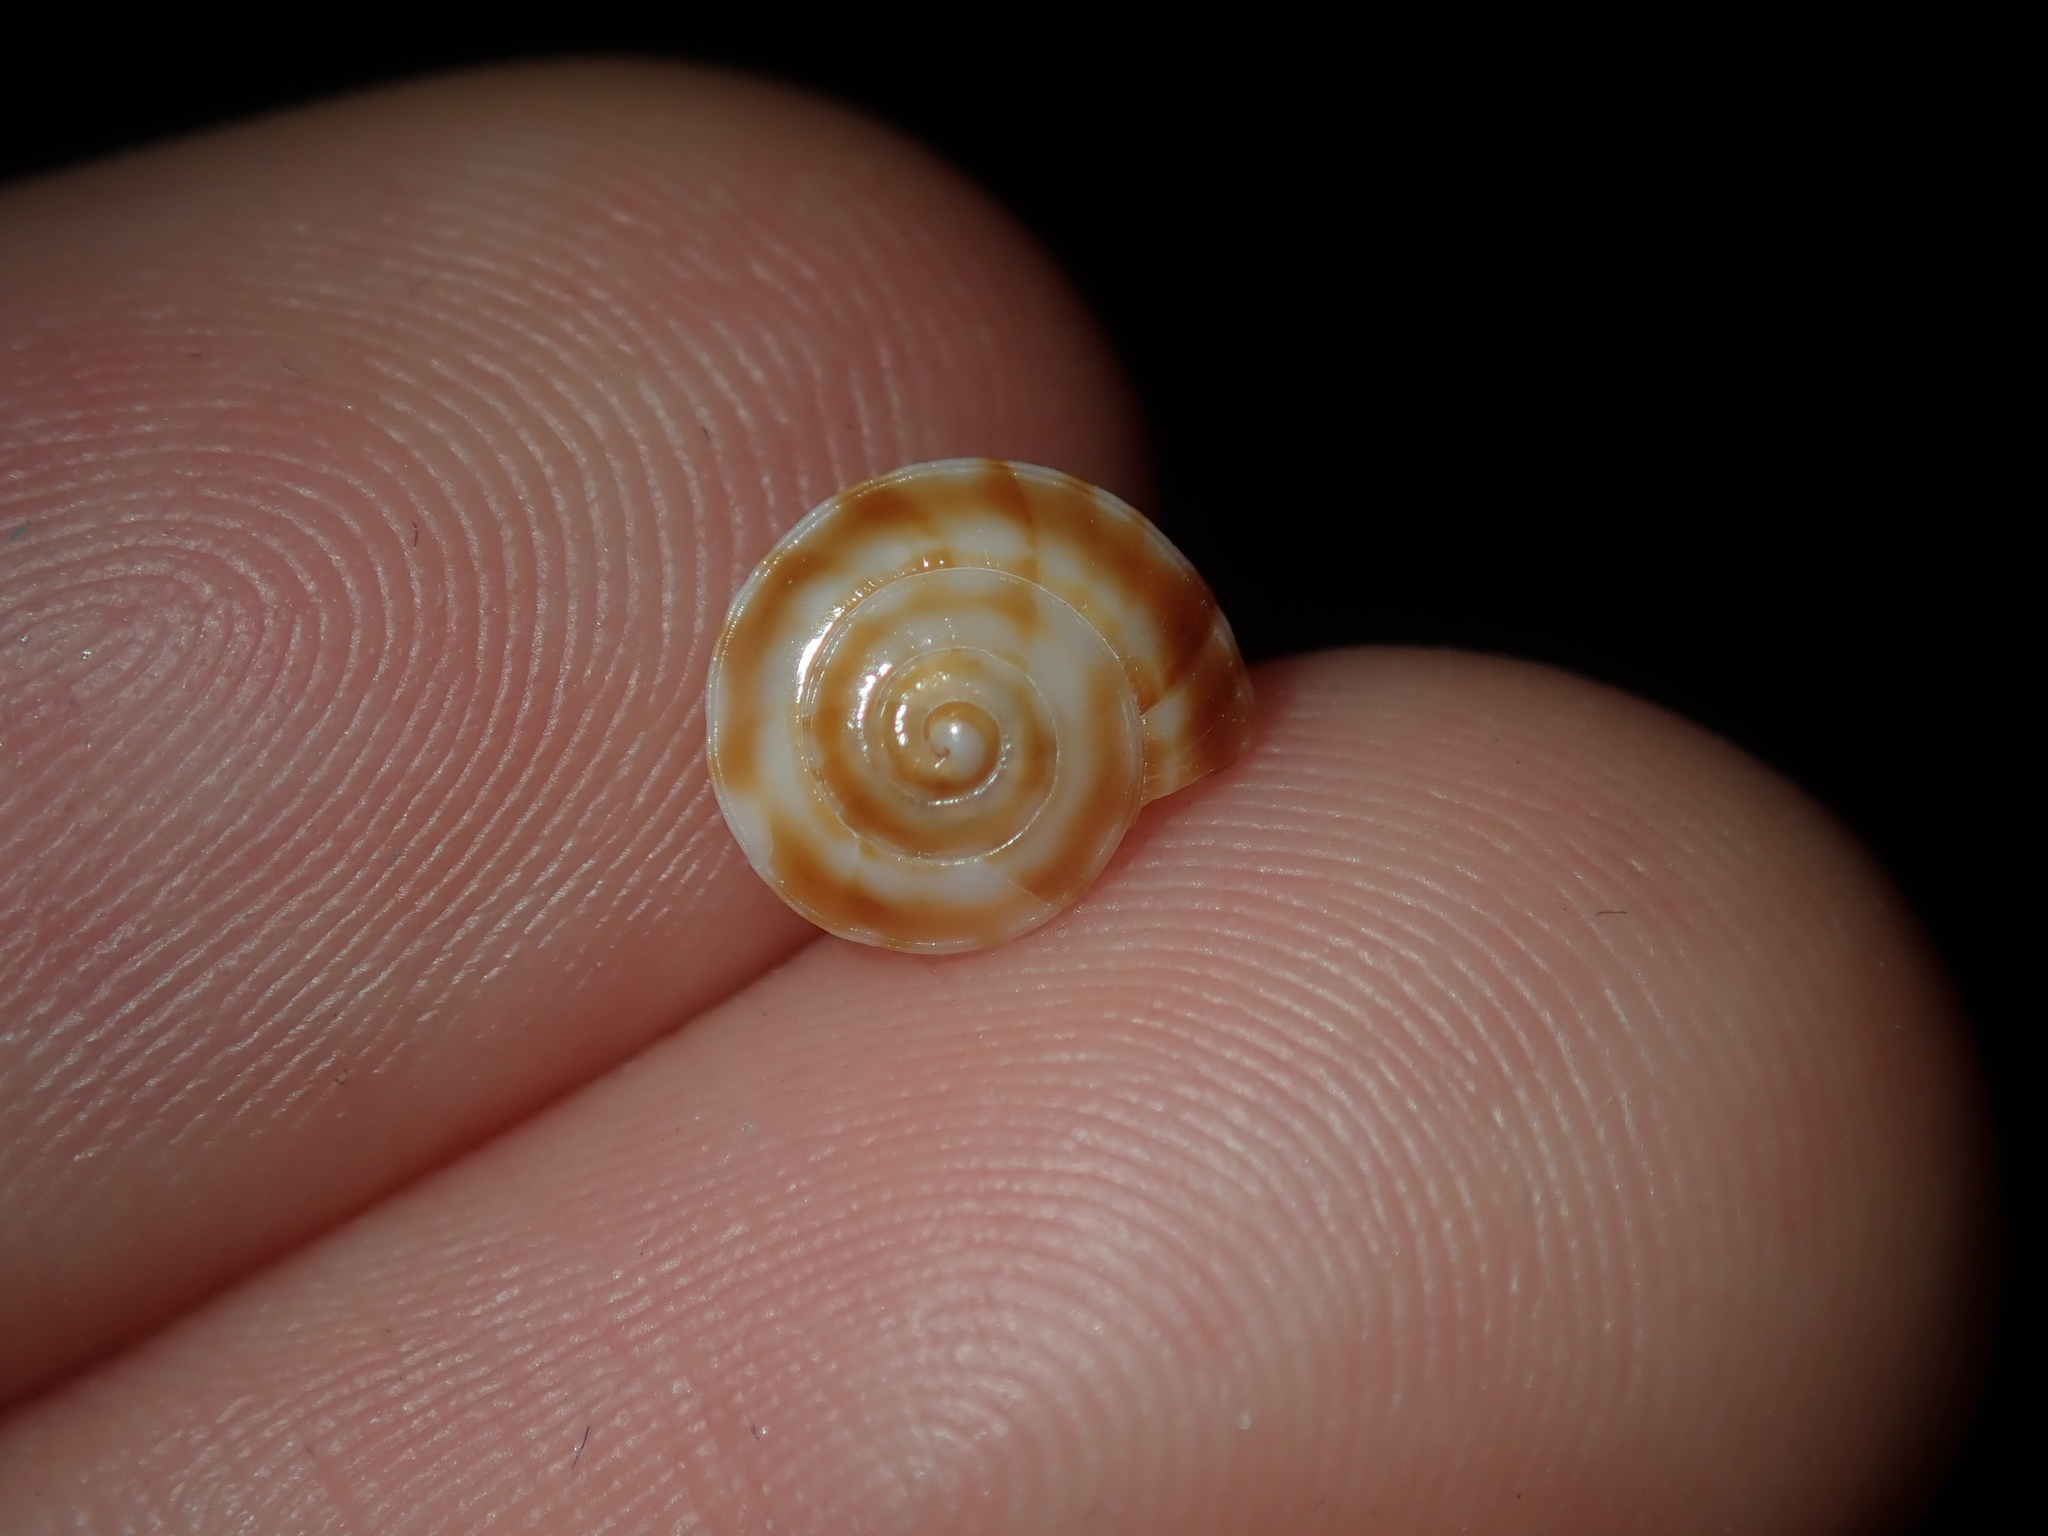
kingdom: Animalia
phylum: Mollusca
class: Gastropoda
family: Architectonicidae
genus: Psilaxis
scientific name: Psilaxis radiatus
